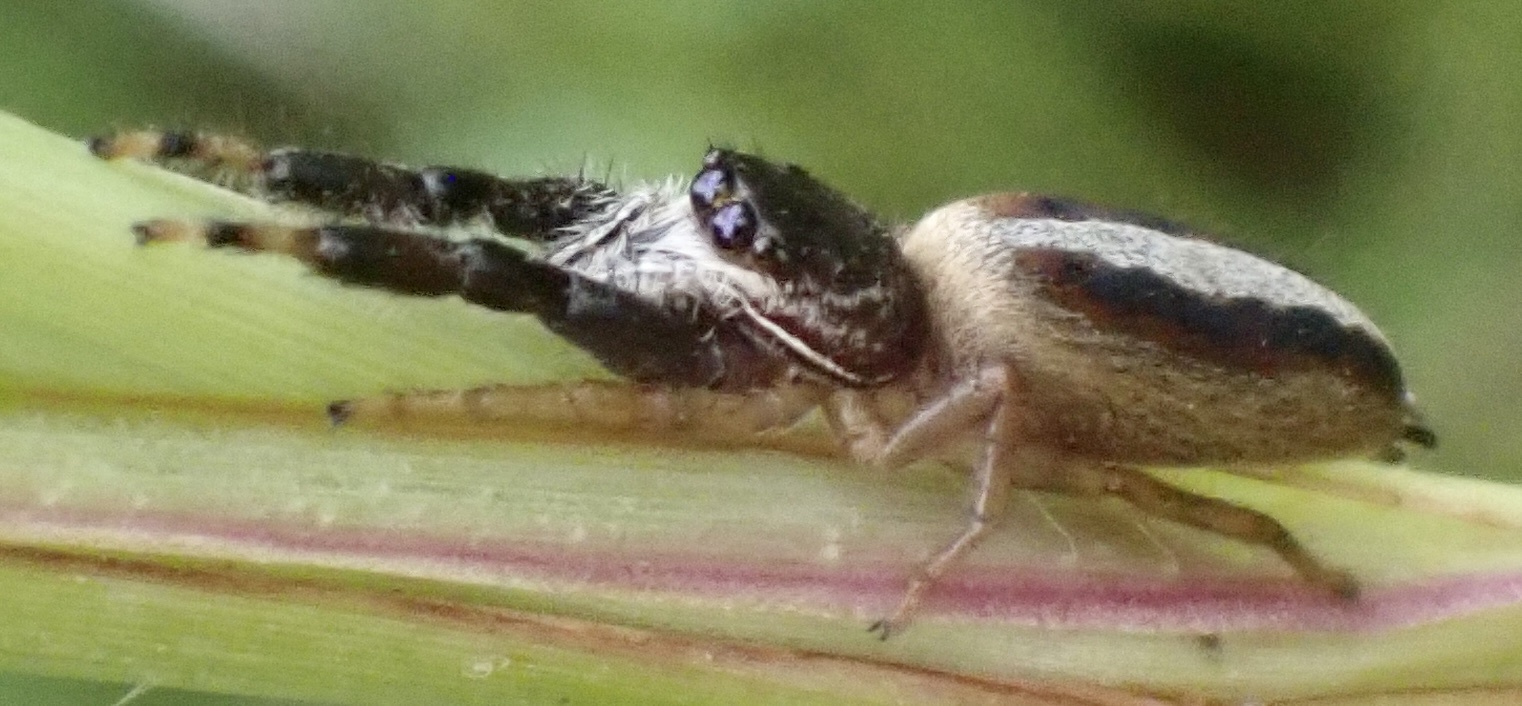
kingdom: Animalia
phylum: Arthropoda
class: Arachnida
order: Araneae
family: Salticidae
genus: Marpissa
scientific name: Marpissa formosa
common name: Short-bellied slender jumping spider
